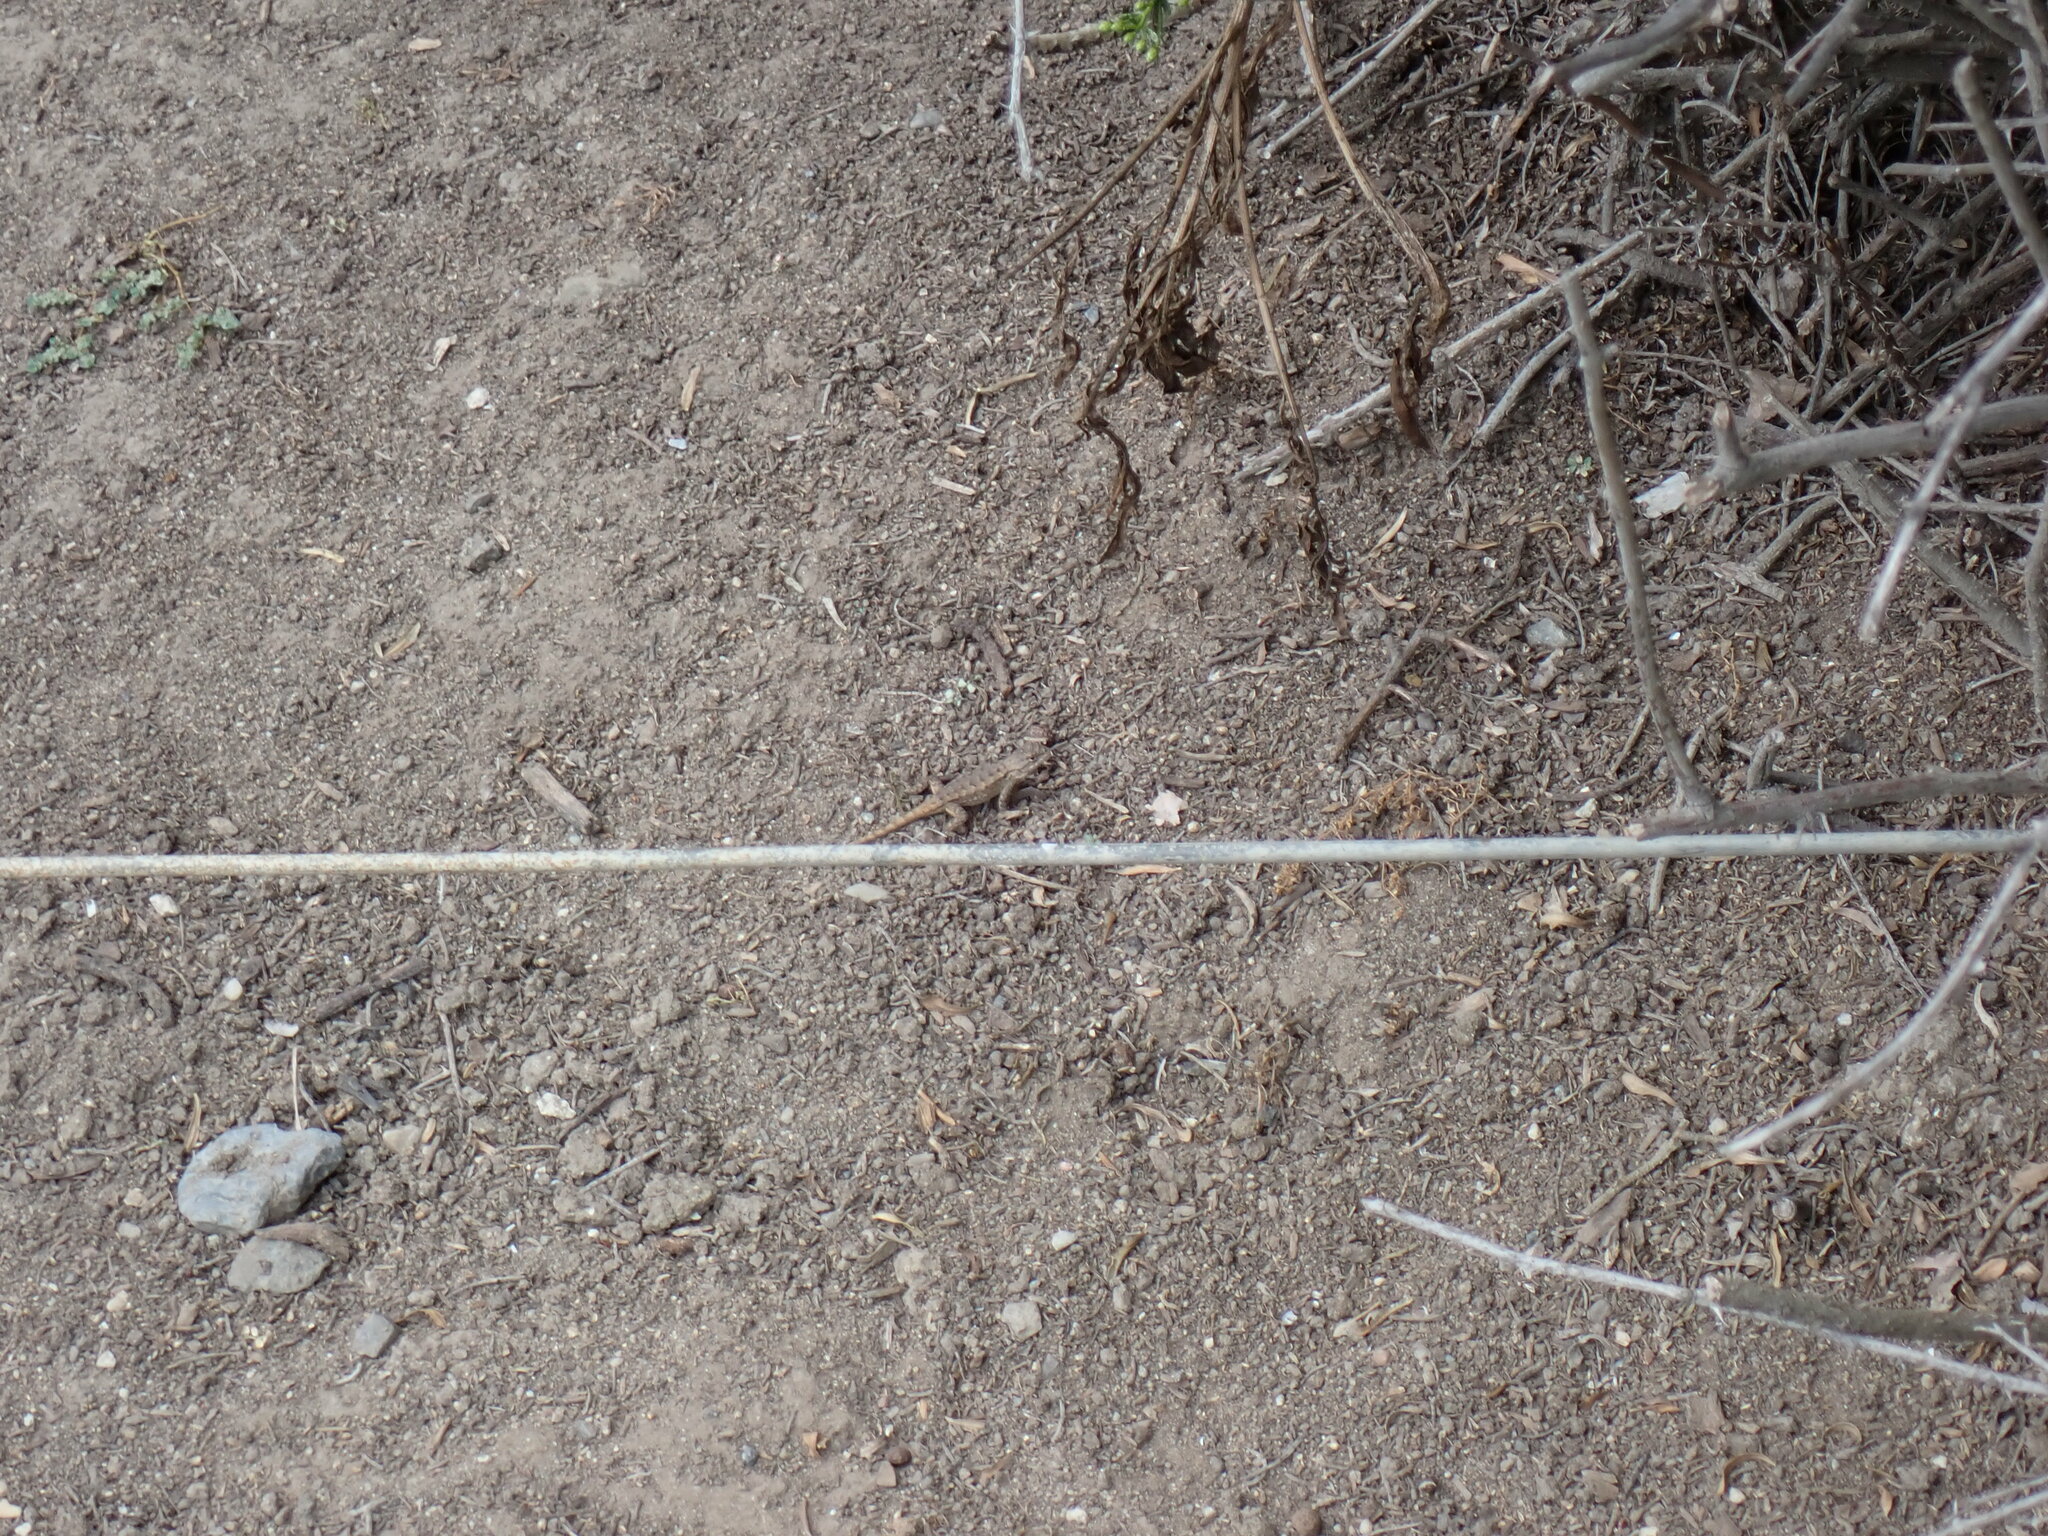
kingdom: Animalia
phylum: Chordata
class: Squamata
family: Phrynosomatidae
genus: Sceloporus
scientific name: Sceloporus occidentalis
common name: Western fence lizard
